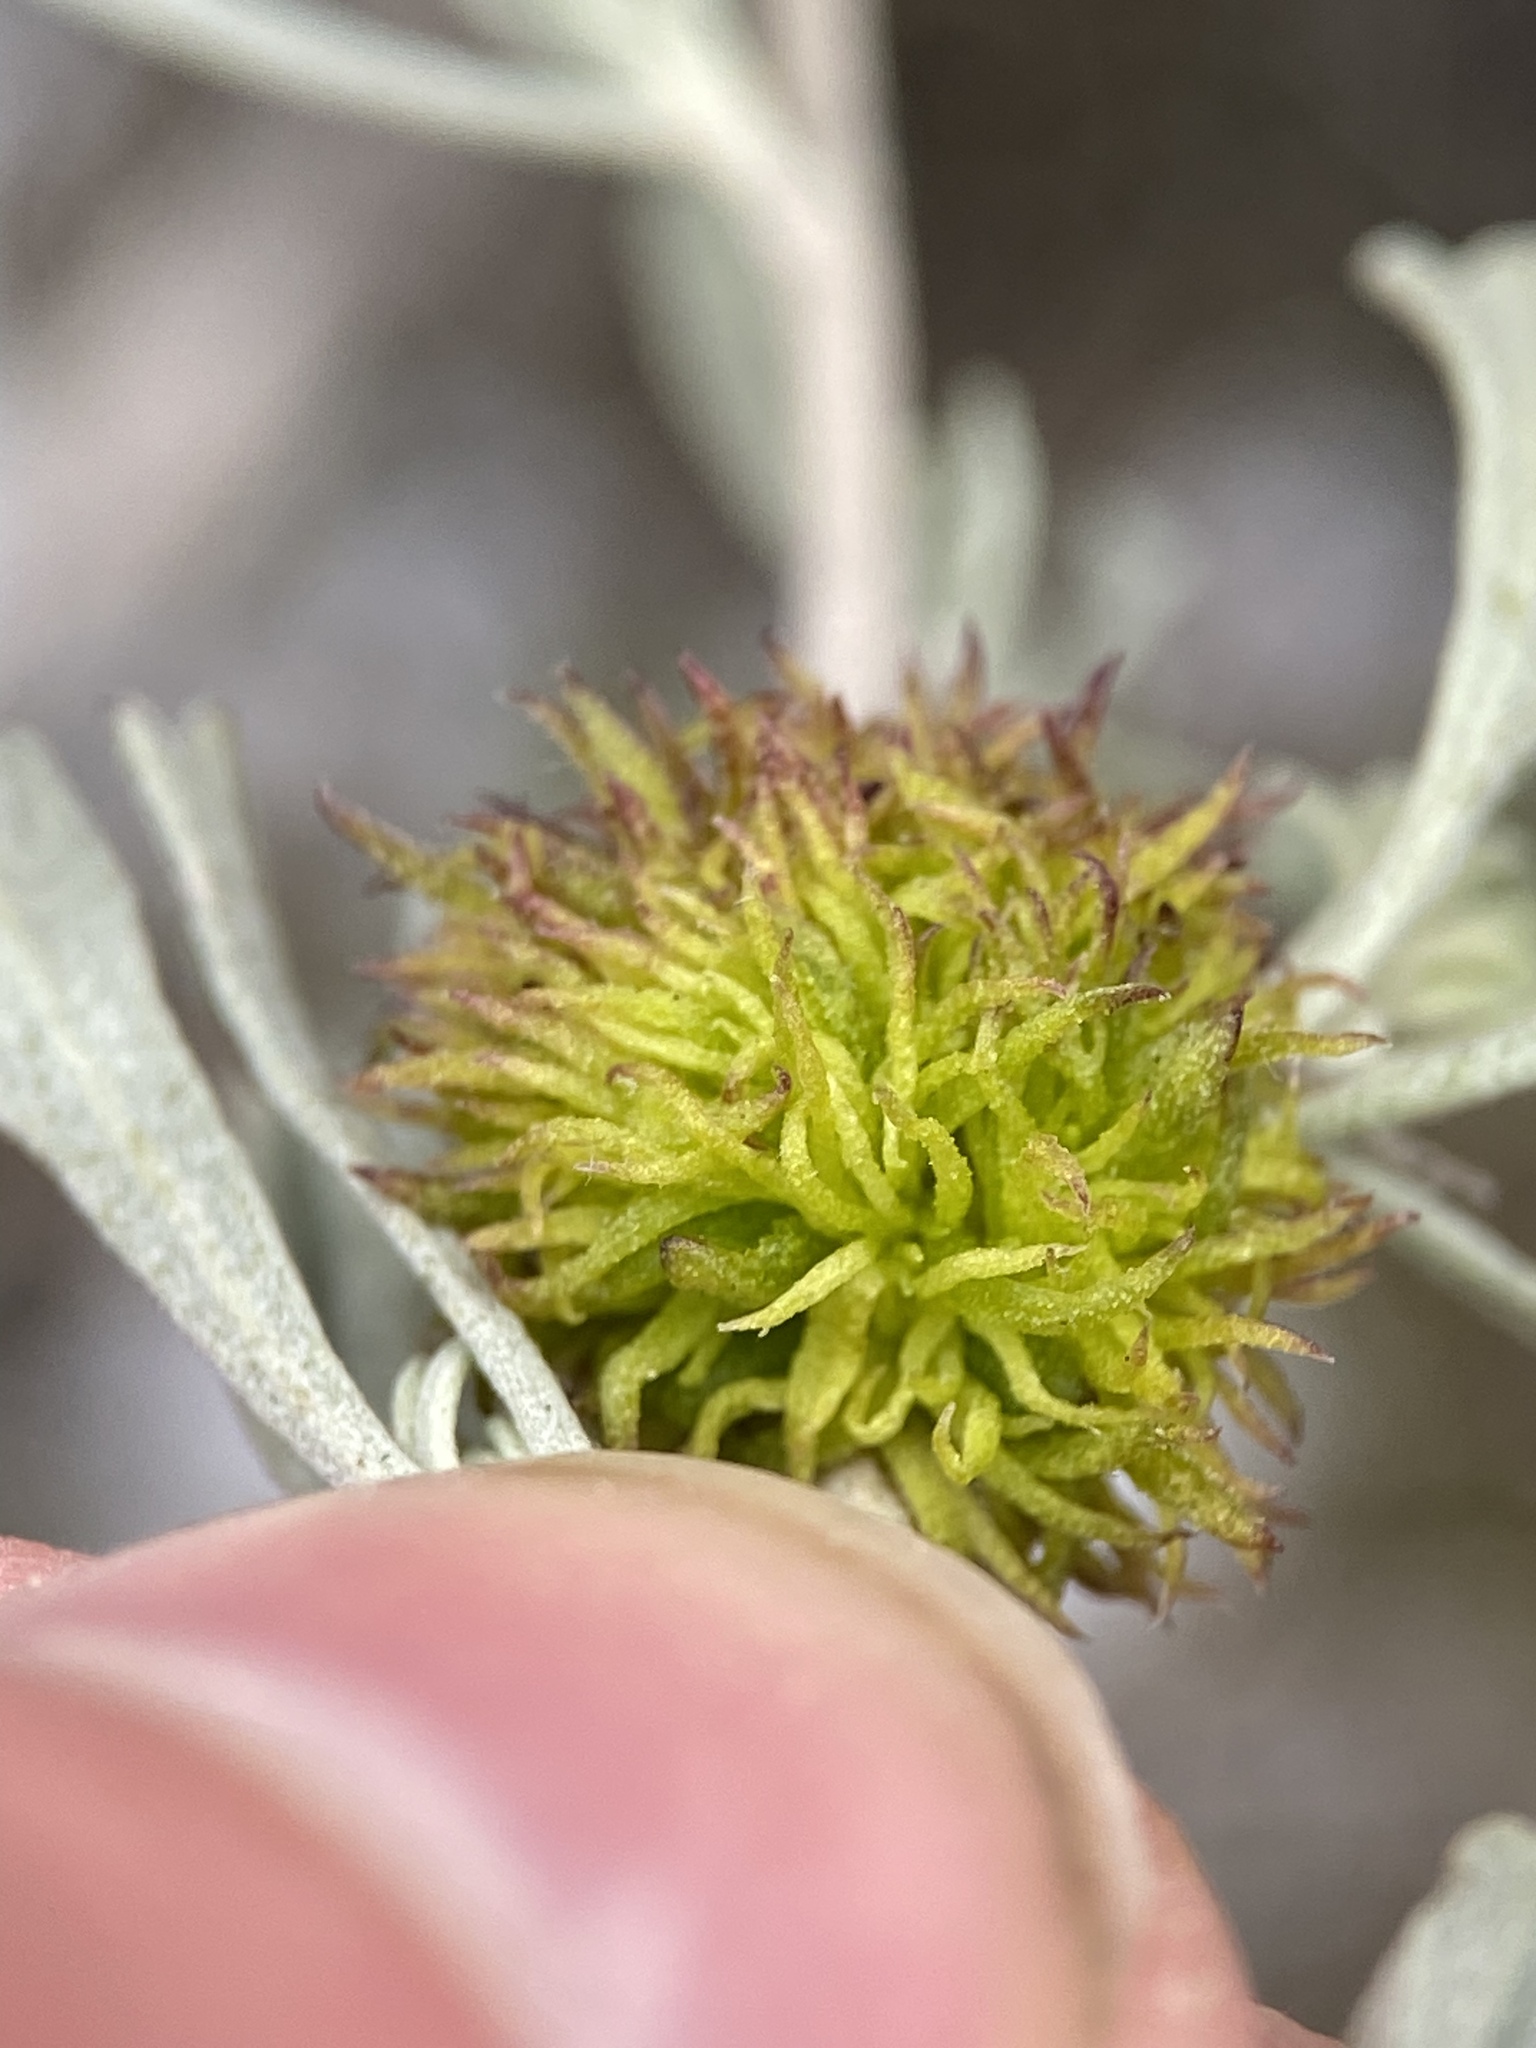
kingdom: Animalia
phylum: Arthropoda
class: Insecta
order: Diptera
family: Cecidomyiidae
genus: Rhopalomyia
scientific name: Rhopalomyia medusa
